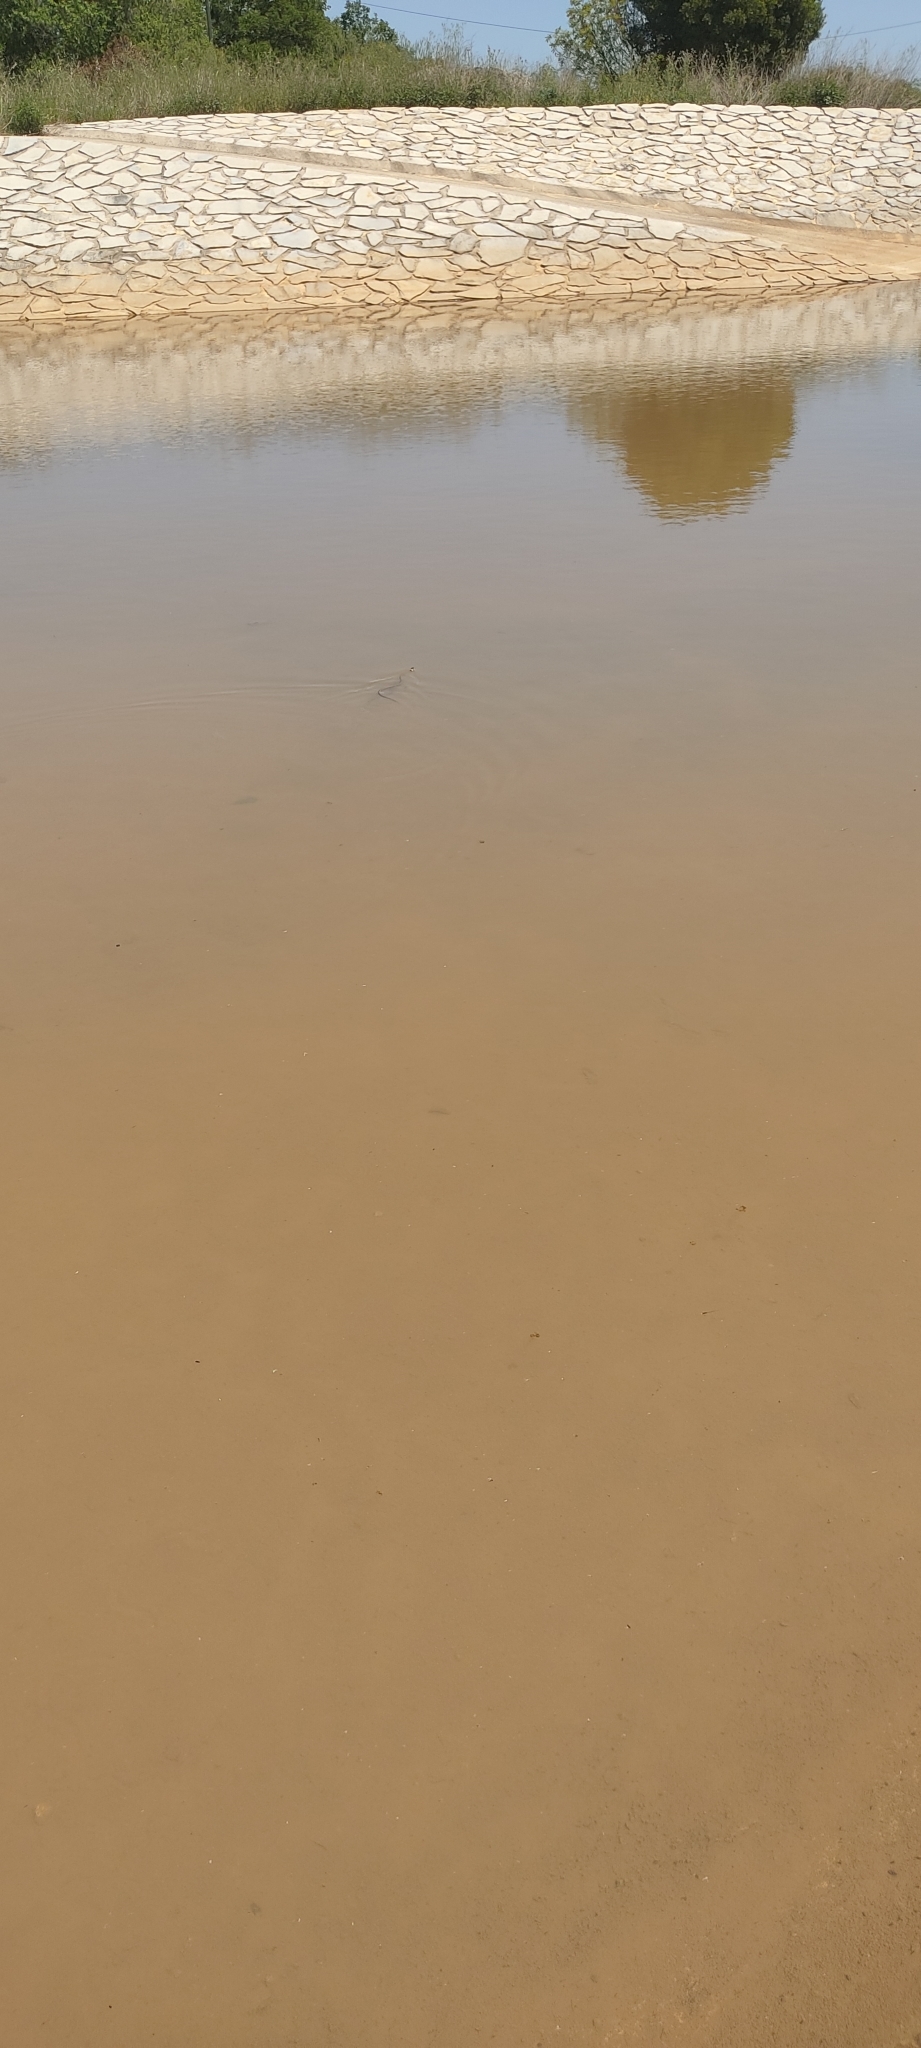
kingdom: Animalia
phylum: Chordata
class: Squamata
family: Colubridae
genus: Natrix
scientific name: Natrix helvetica
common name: Banded grass snake
